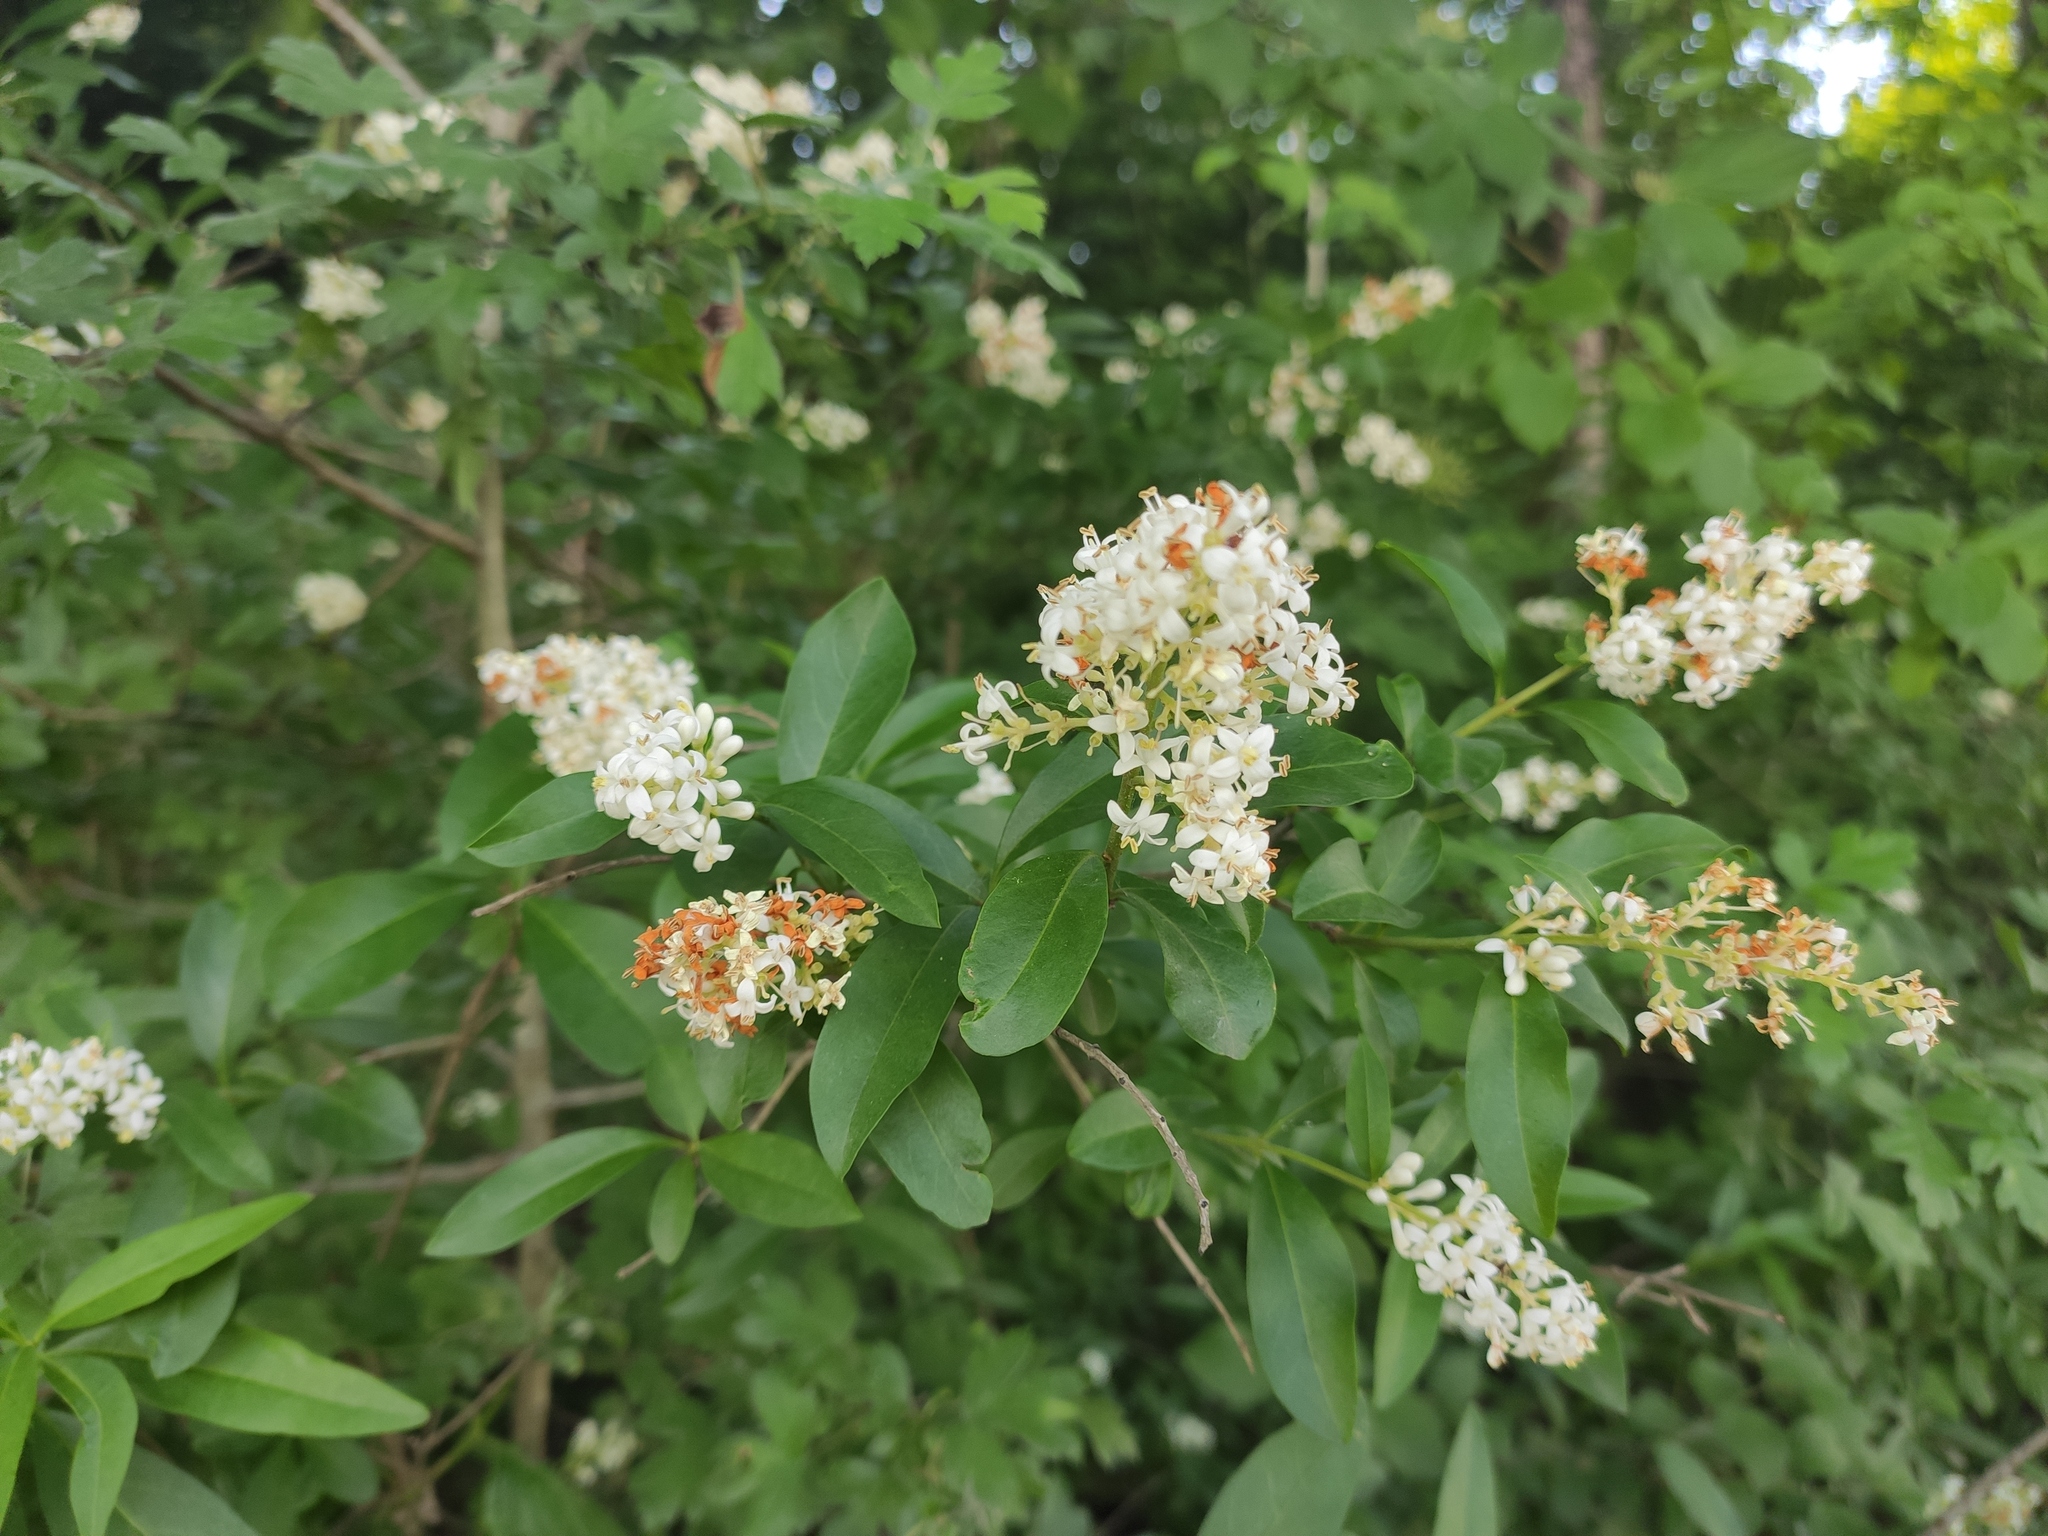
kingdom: Plantae
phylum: Tracheophyta
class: Magnoliopsida
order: Lamiales
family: Oleaceae
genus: Ligustrum
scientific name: Ligustrum vulgare
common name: Wild privet
